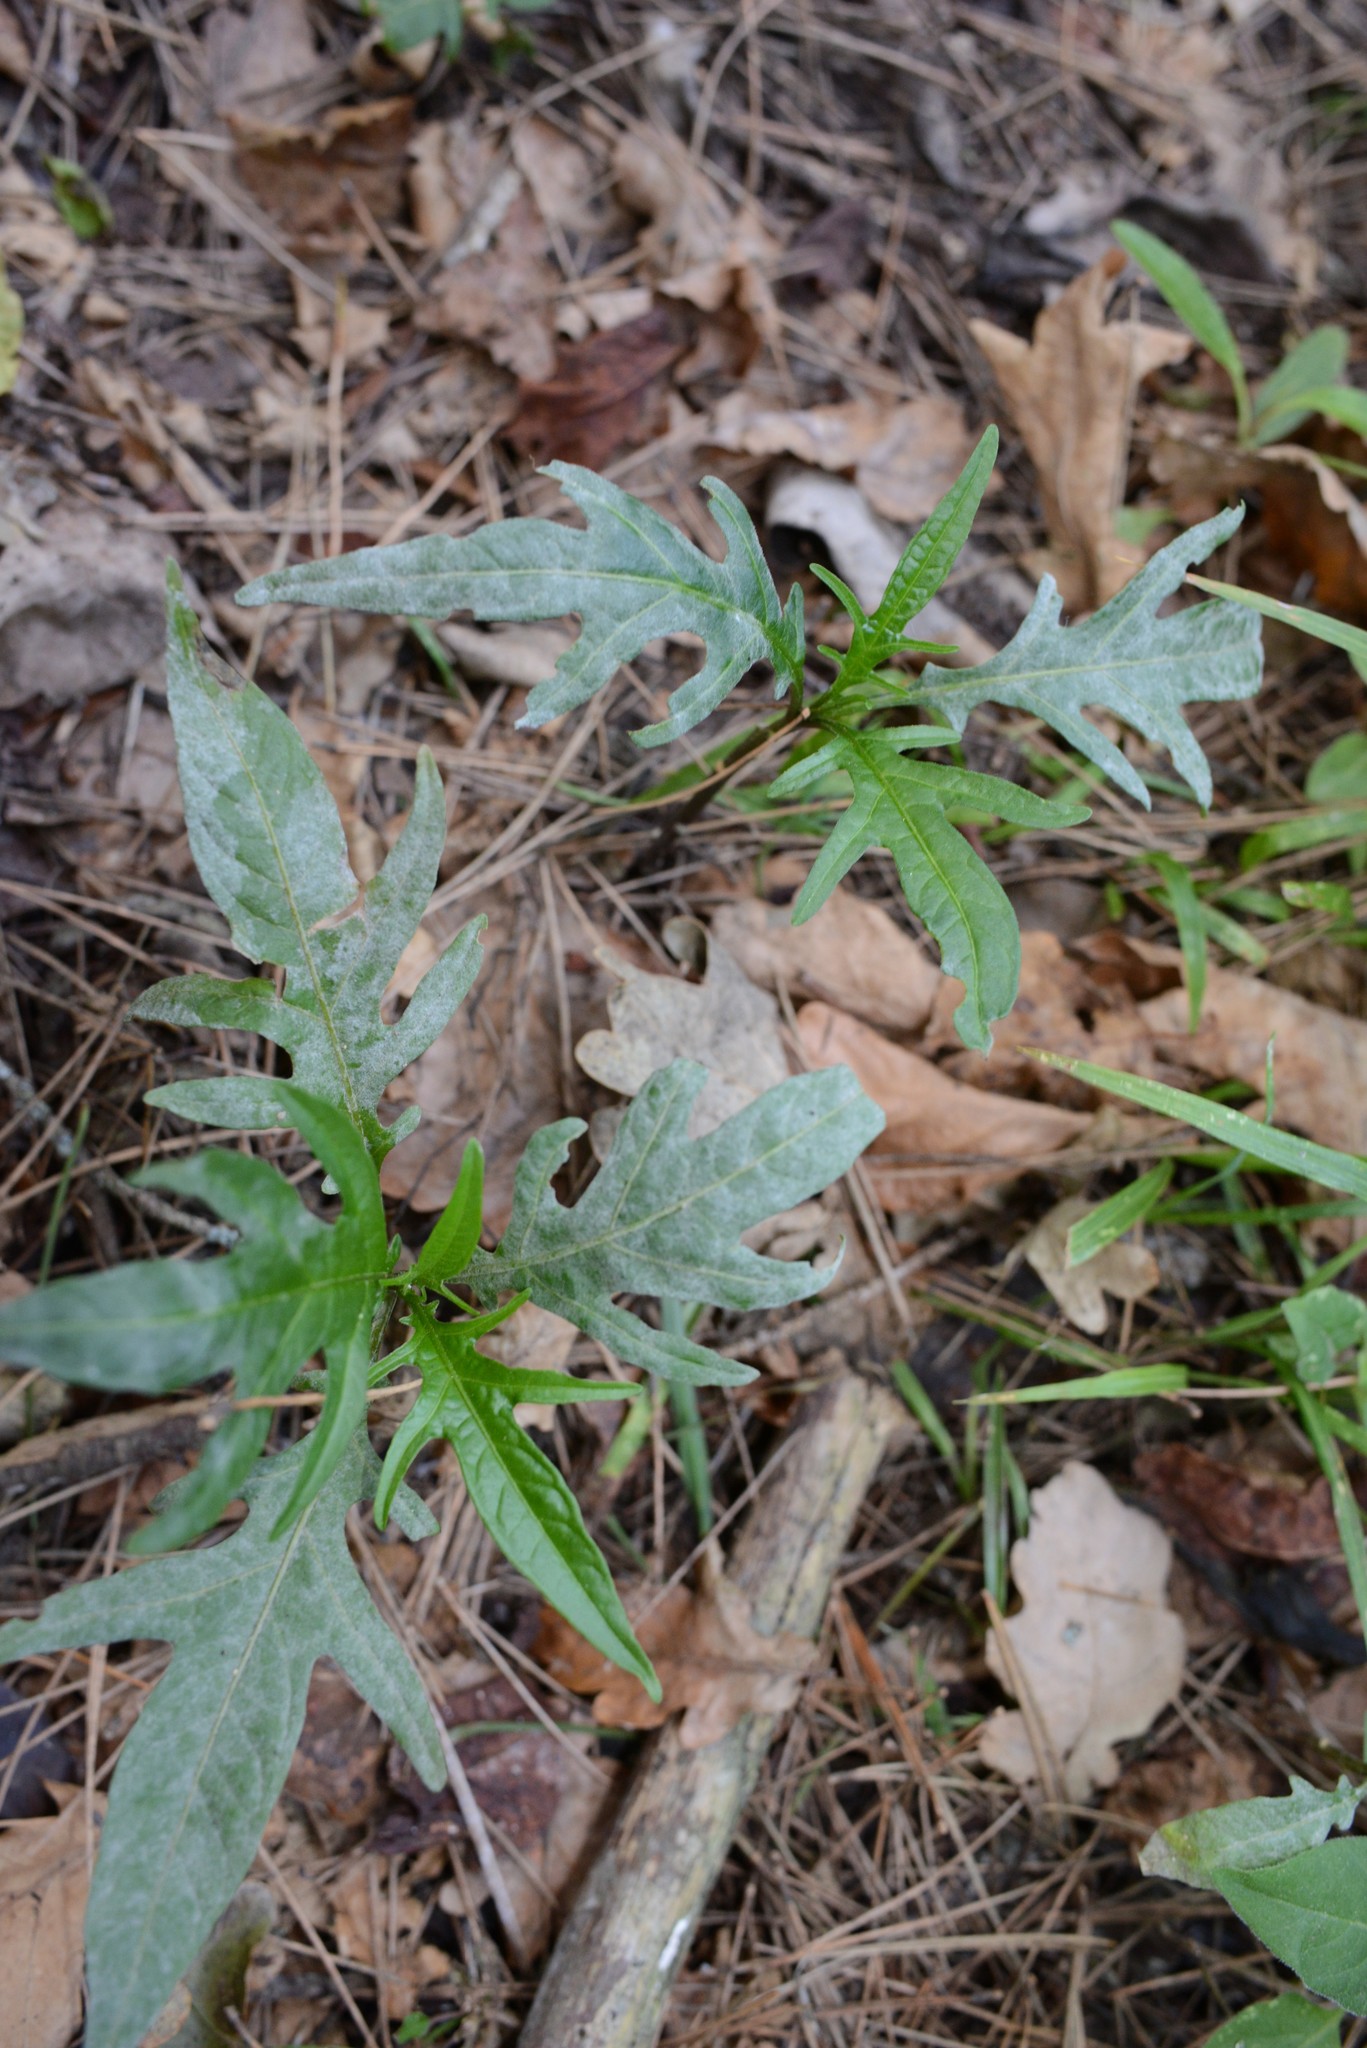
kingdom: Fungi
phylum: Ascomycota
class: Leotiomycetes
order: Helotiales
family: Erysiphaceae
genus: Golovinomyces
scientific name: Golovinomyces longipes
